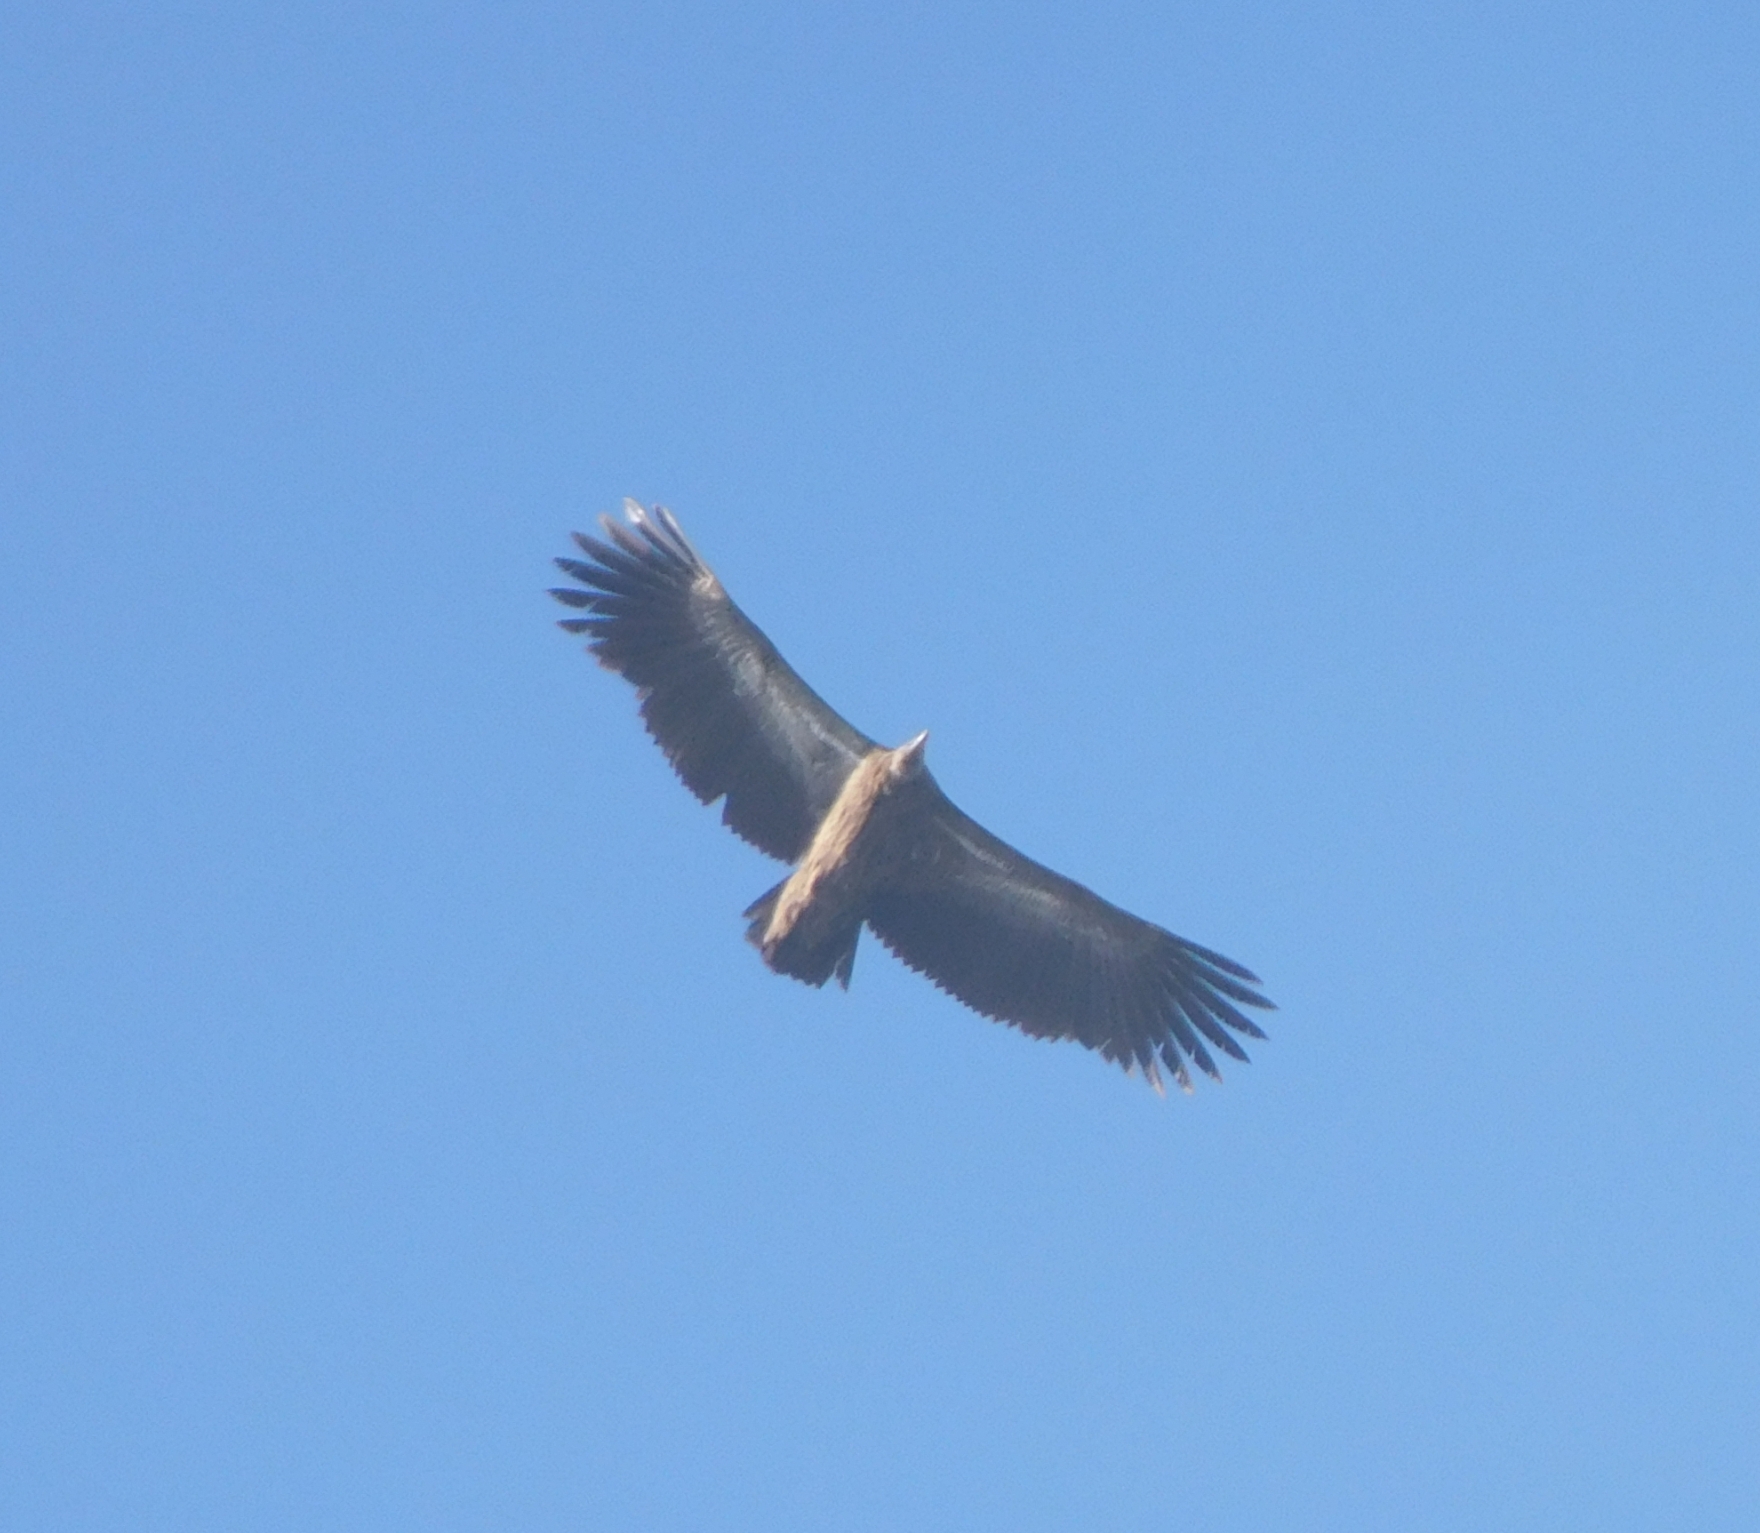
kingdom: Animalia
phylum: Chordata
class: Aves
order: Accipitriformes
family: Accipitridae
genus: Gyps
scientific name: Gyps himalayensis
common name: Himalayan griffon
